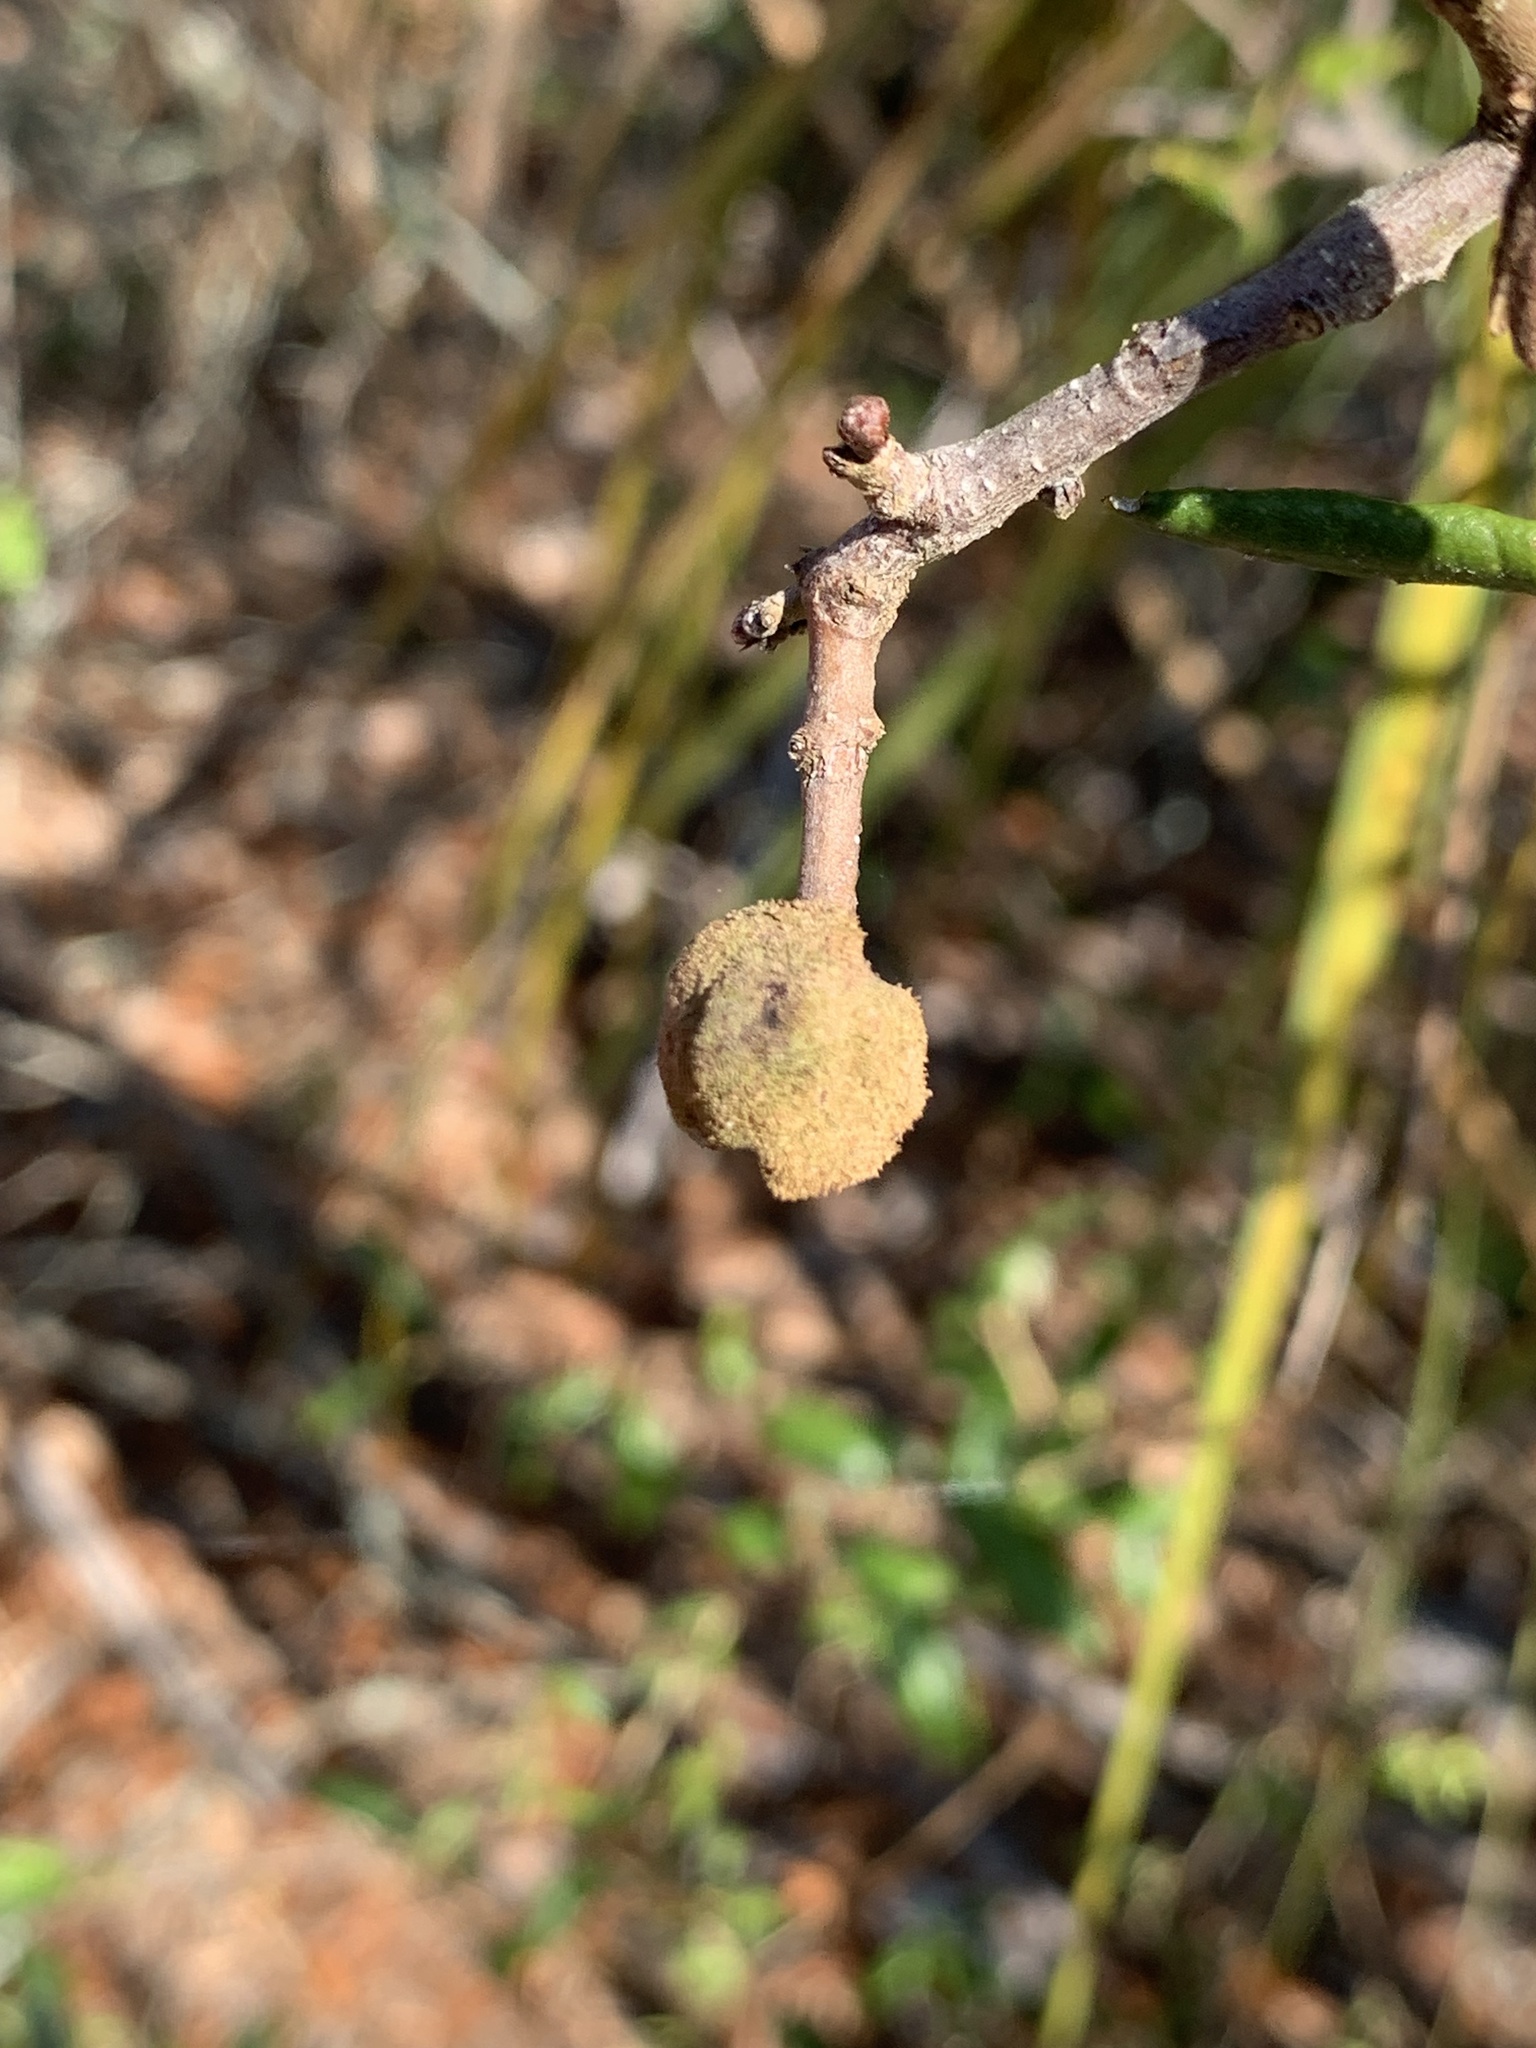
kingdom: Animalia
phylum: Arthropoda
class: Insecta
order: Hymenoptera
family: Cynipidae
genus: Disholcaspis
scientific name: Disholcaspis
